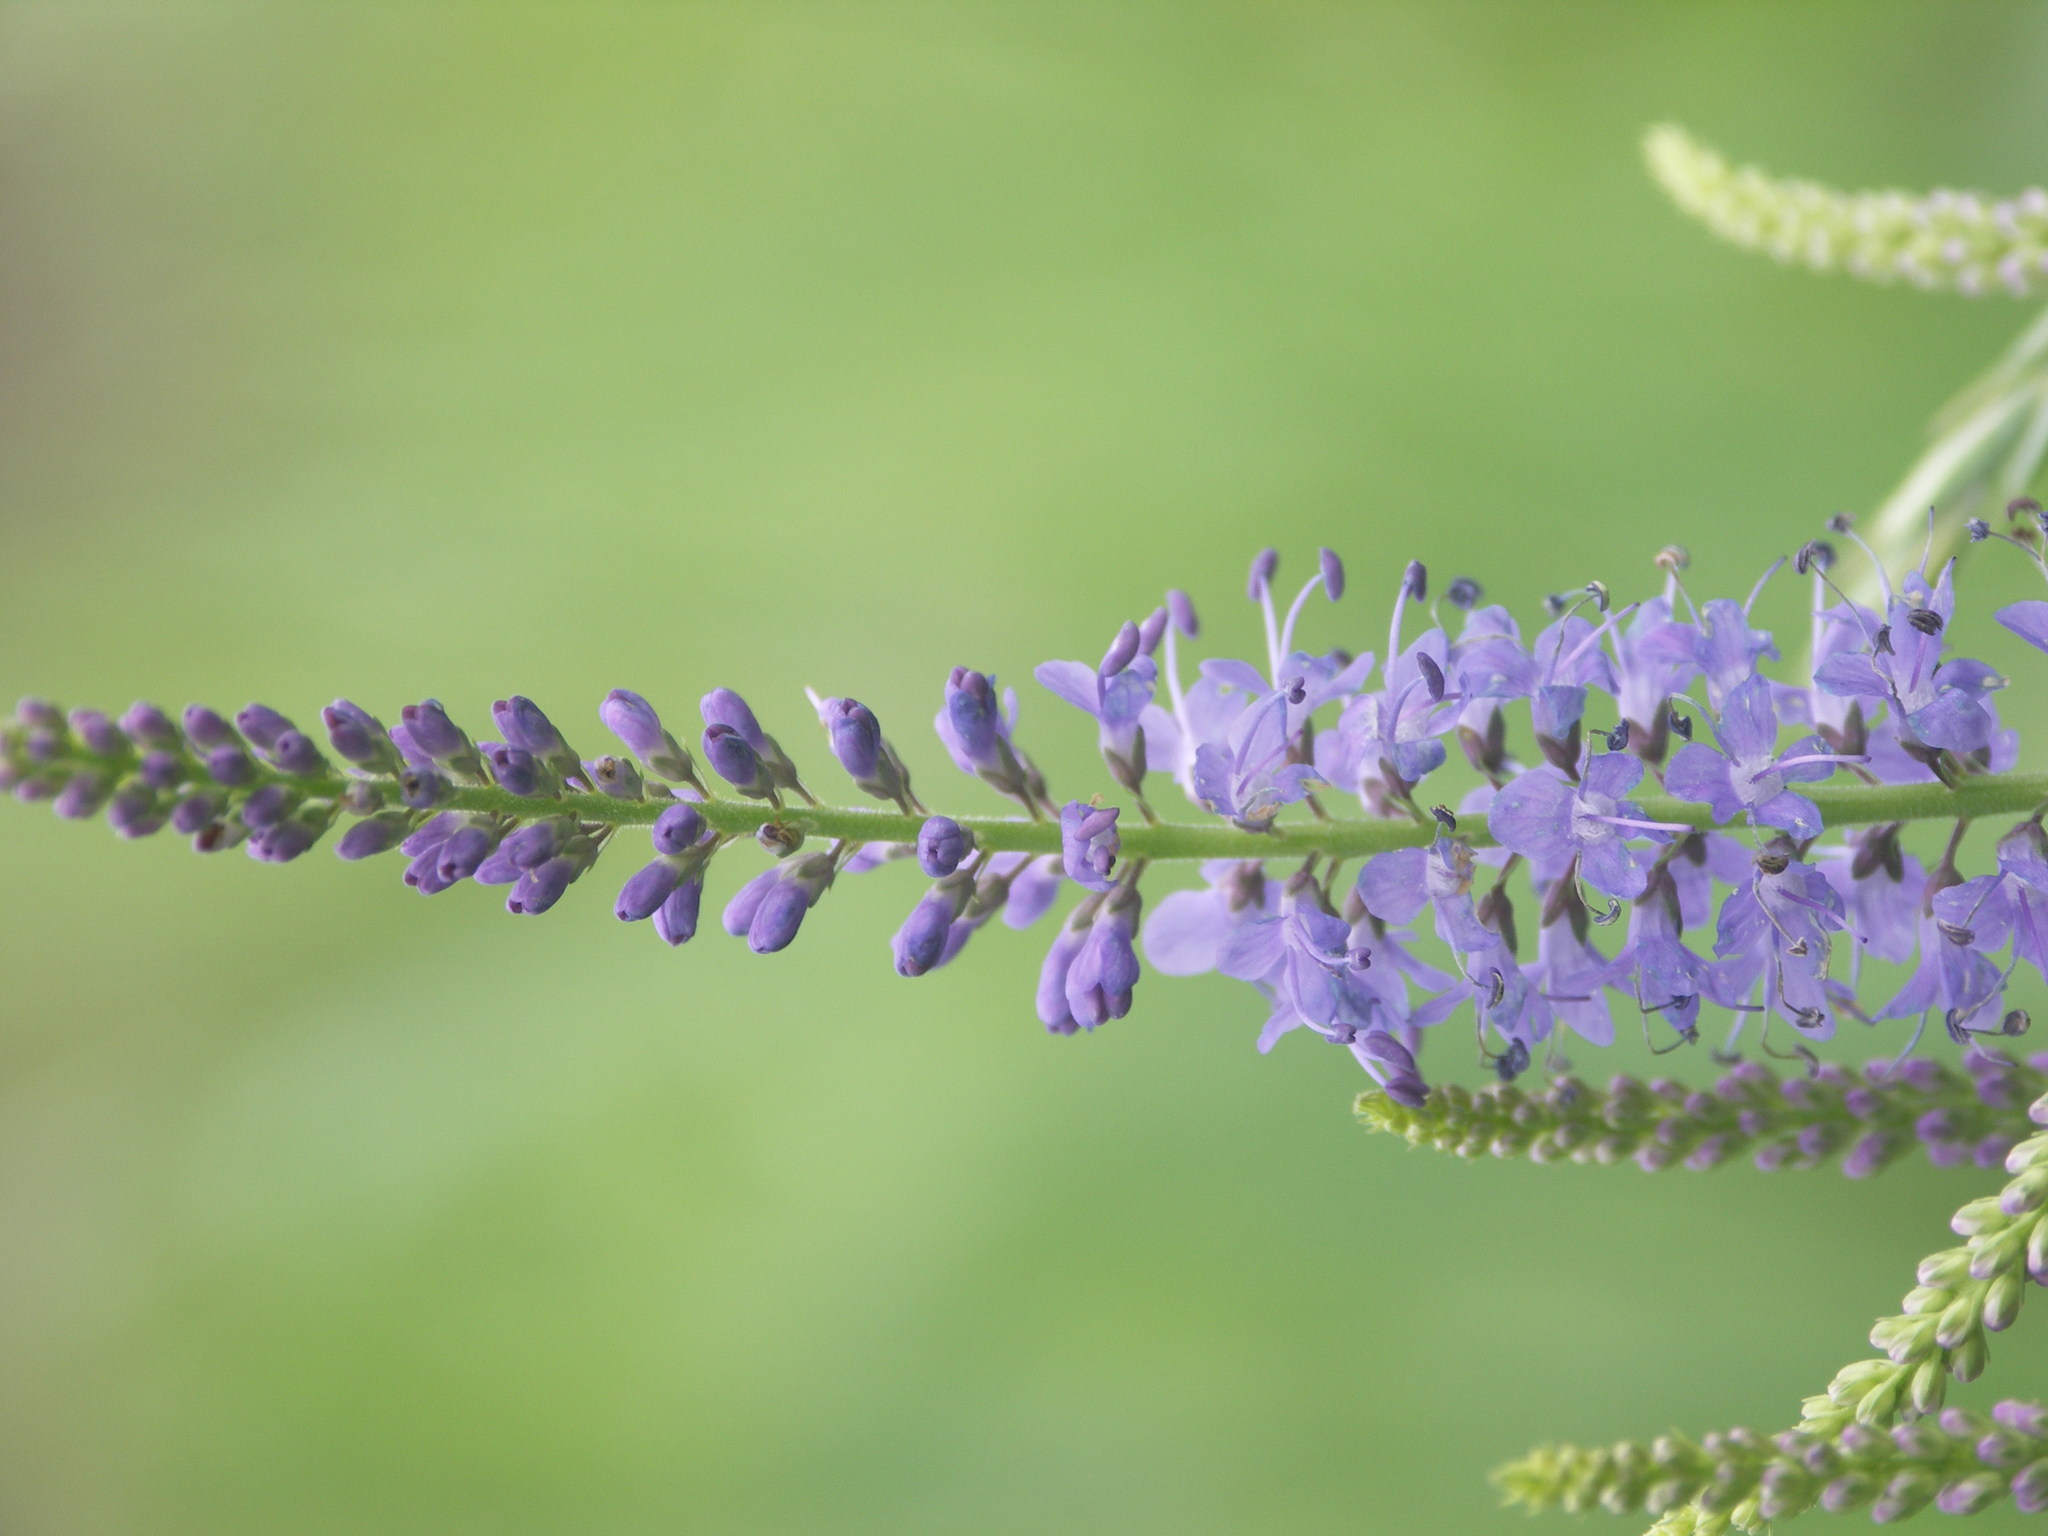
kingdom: Plantae
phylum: Tracheophyta
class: Magnoliopsida
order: Lamiales
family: Plantaginaceae
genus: Veronica
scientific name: Veronica longifolia
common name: Garden speedwell
